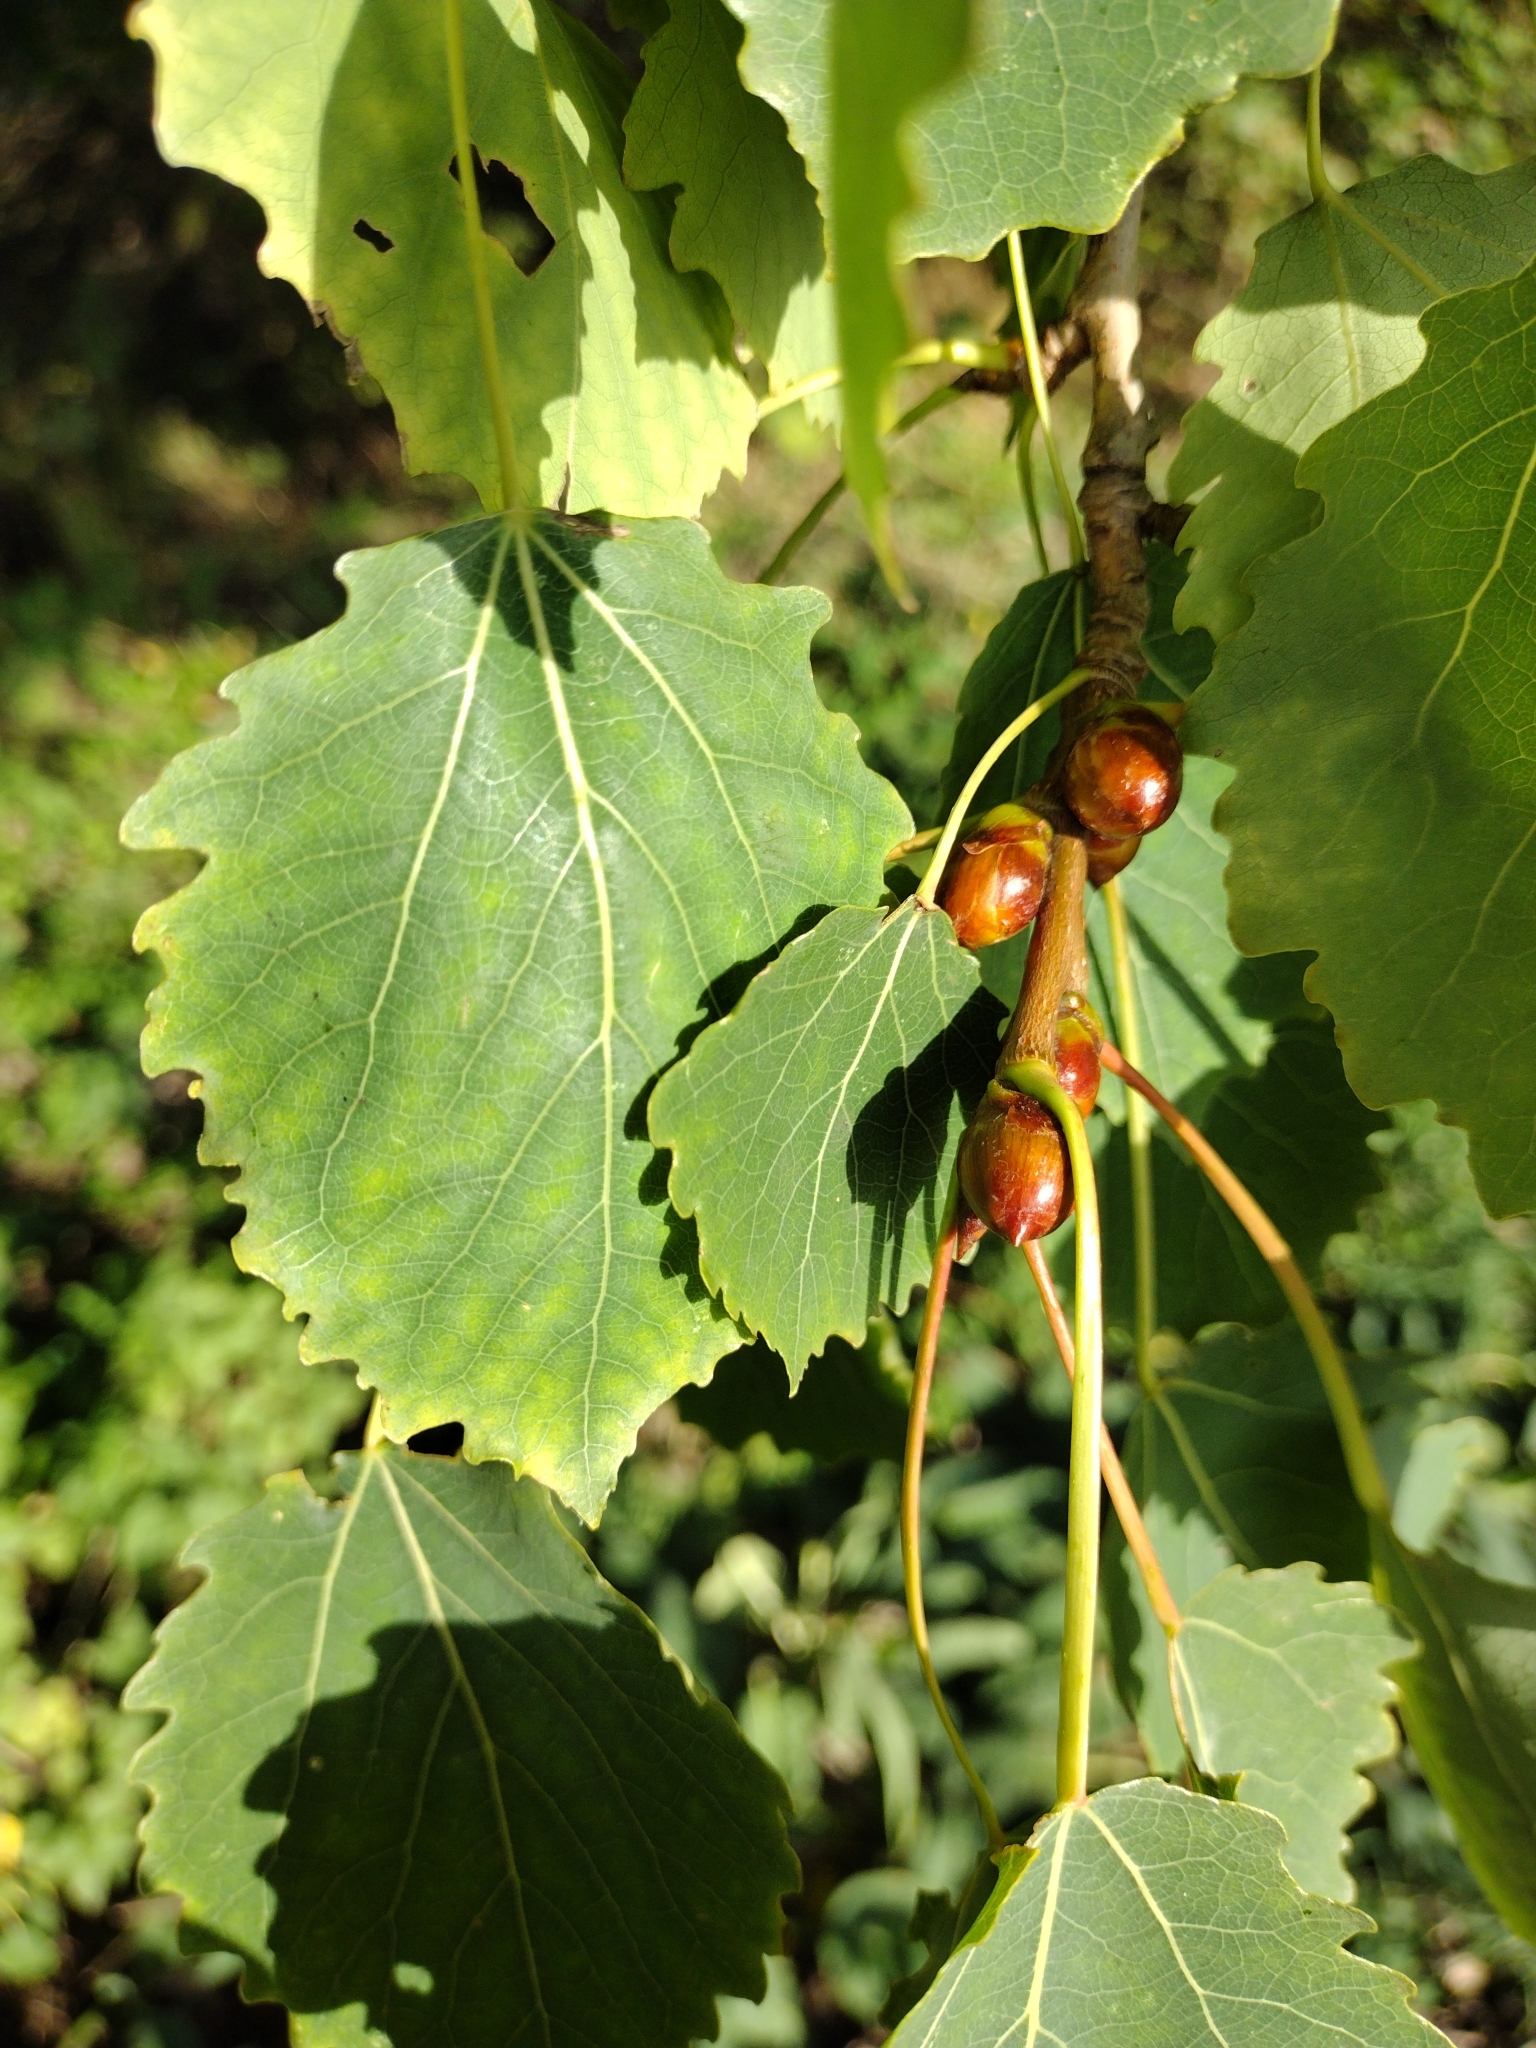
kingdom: Plantae
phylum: Tracheophyta
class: Magnoliopsida
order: Malpighiales
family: Salicaceae
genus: Populus
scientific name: Populus tremula
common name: European aspen
